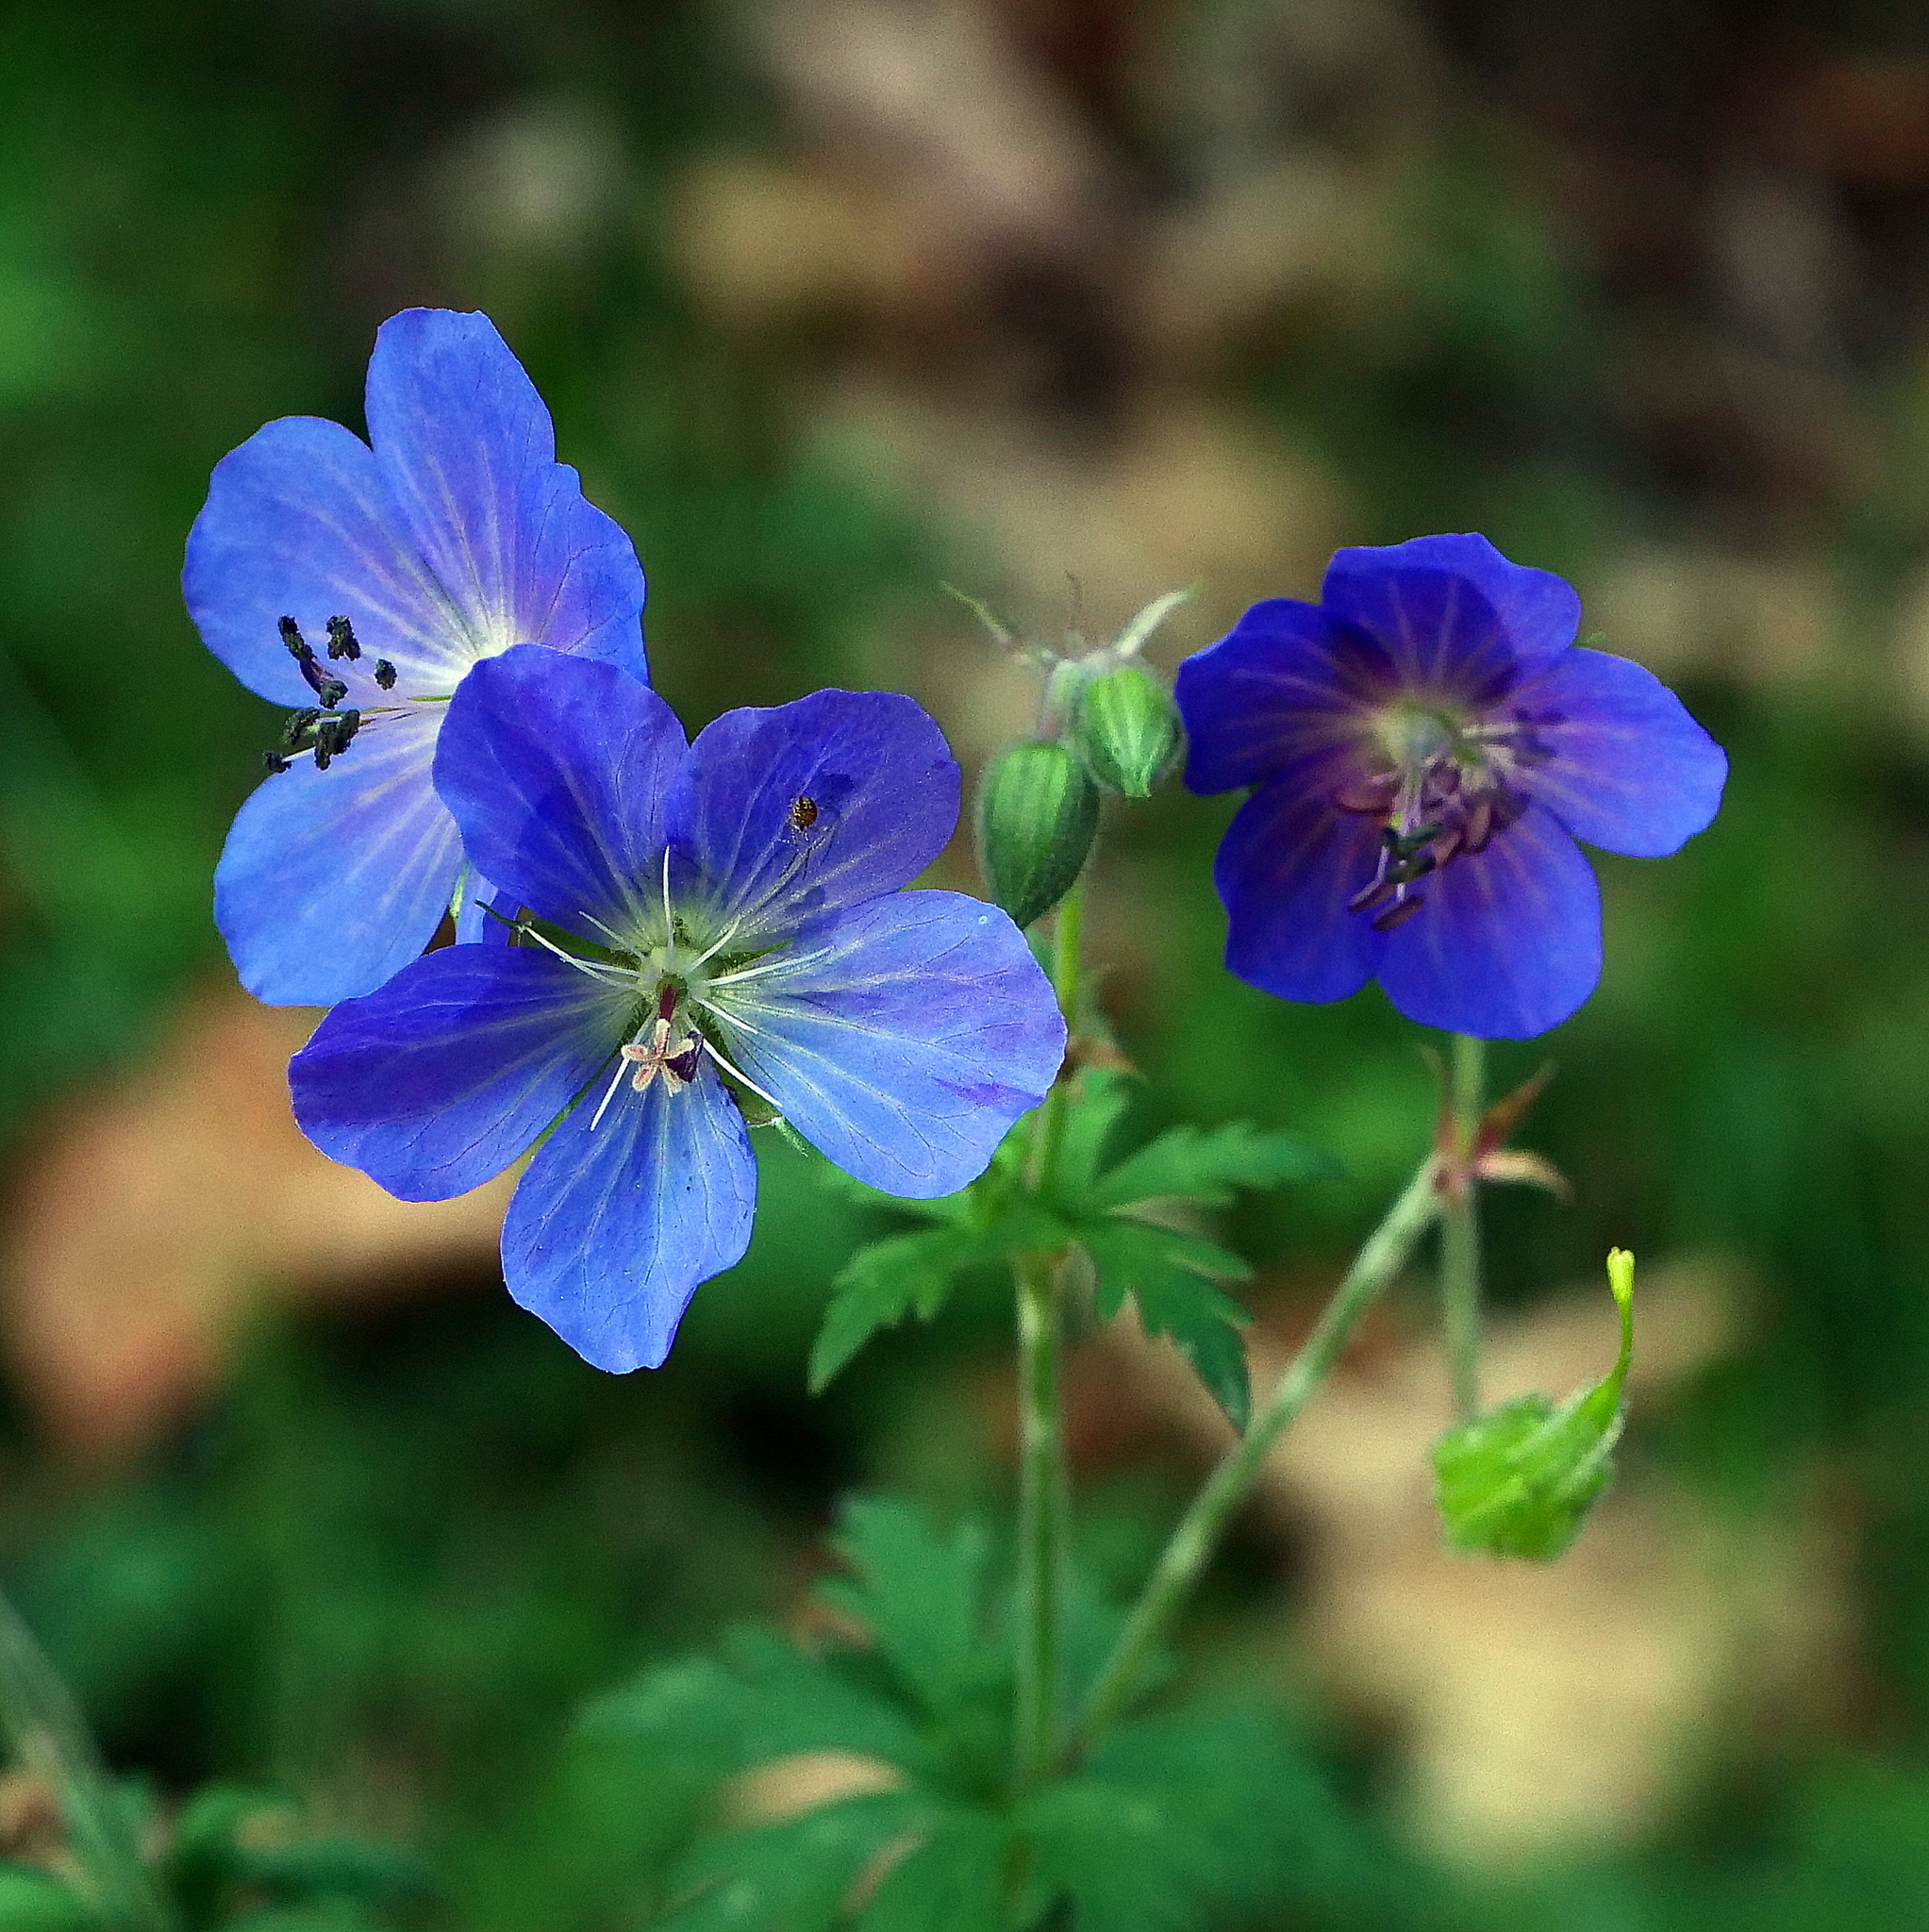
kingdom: Plantae
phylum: Tracheophyta
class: Magnoliopsida
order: Geraniales
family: Geraniaceae
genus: Geranium
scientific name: Geranium pratense
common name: Meadow crane's-bill
